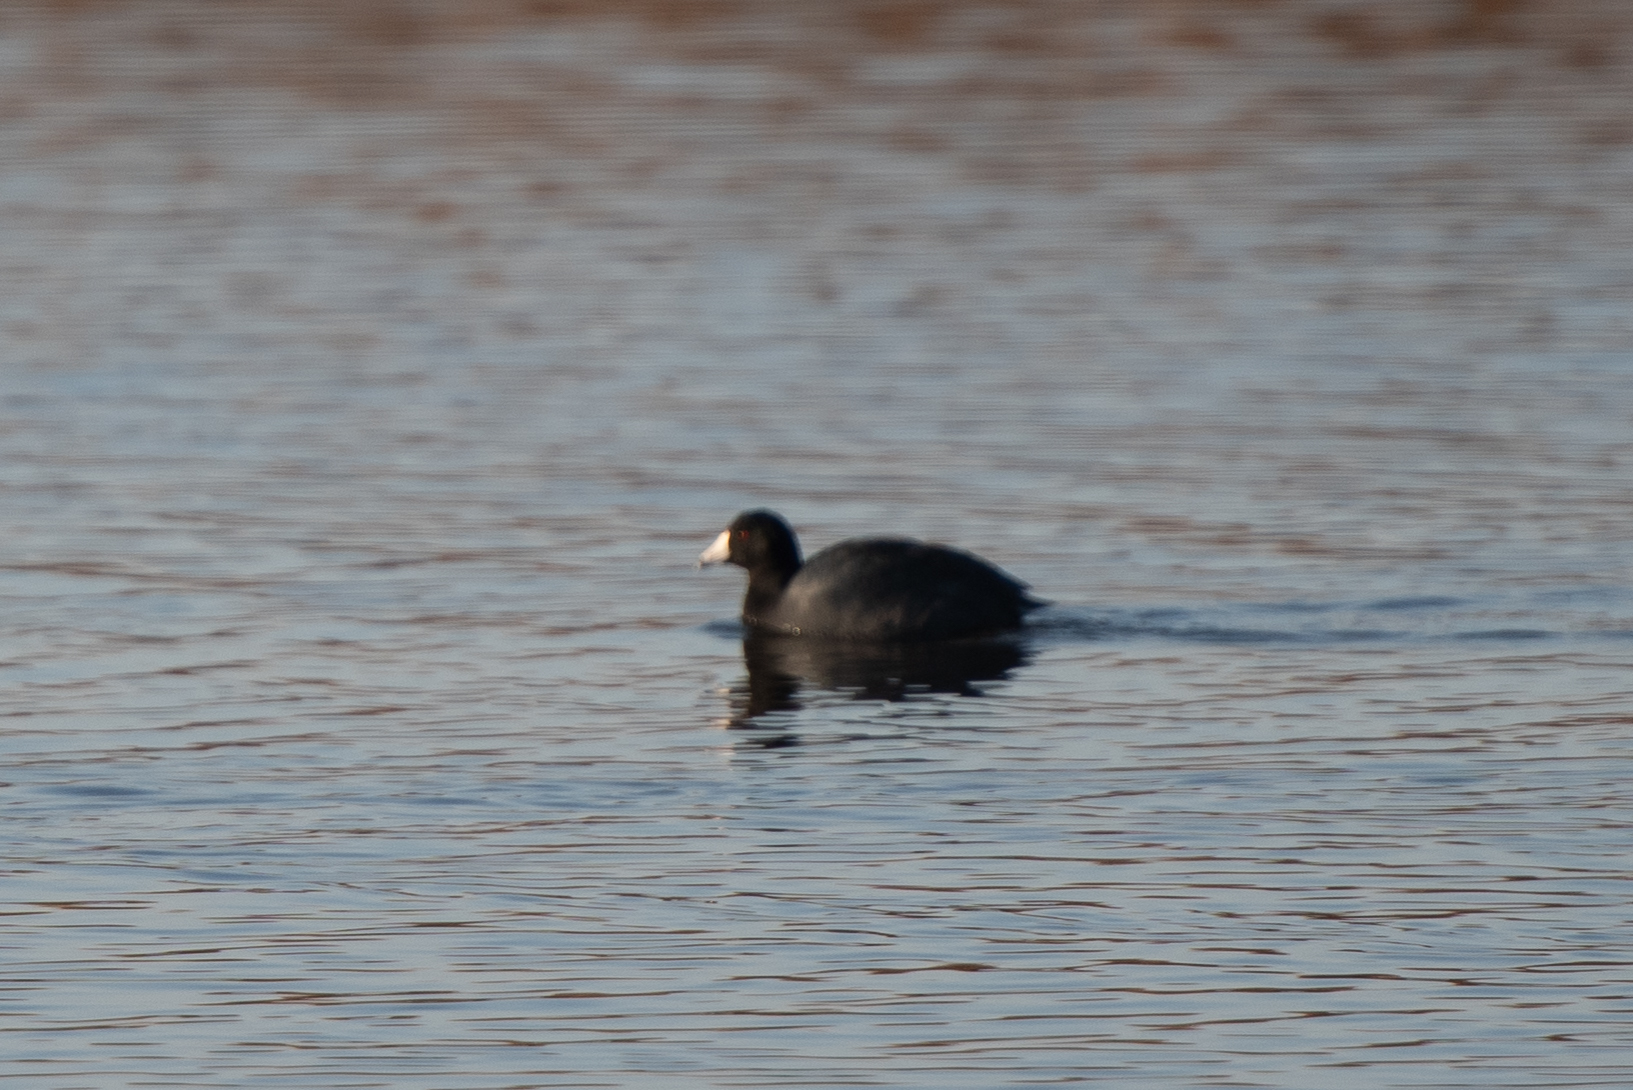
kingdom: Animalia
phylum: Chordata
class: Aves
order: Gruiformes
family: Rallidae
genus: Fulica
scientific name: Fulica americana
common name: American coot
